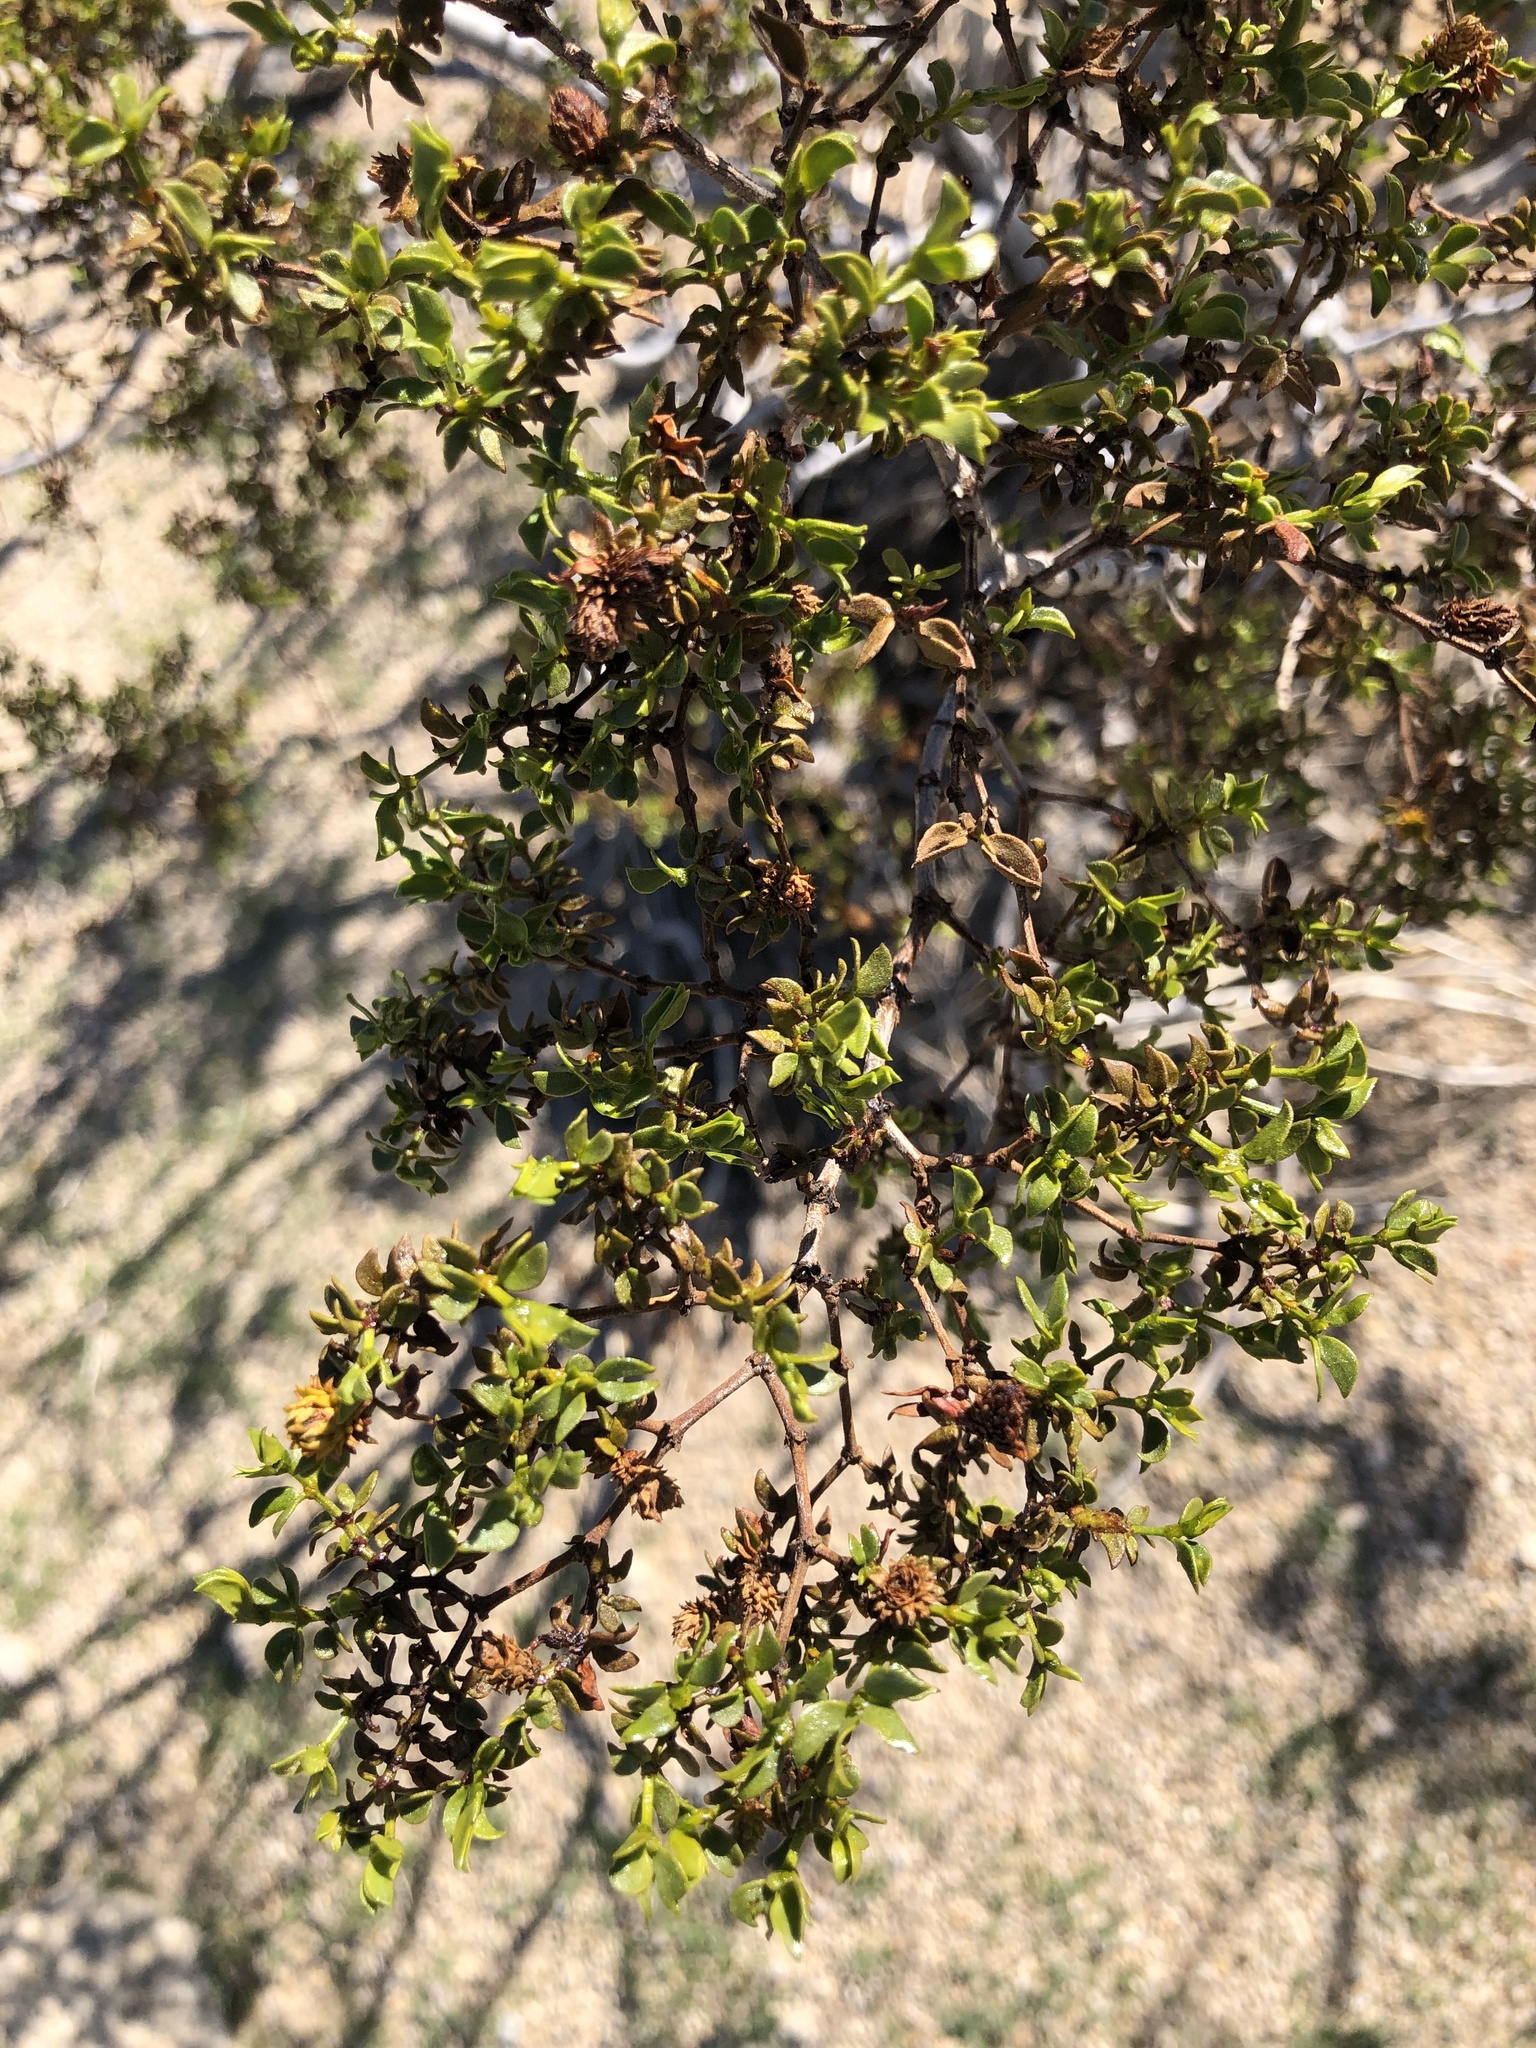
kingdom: Plantae
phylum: Tracheophyta
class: Magnoliopsida
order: Zygophyllales
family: Zygophyllaceae
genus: Larrea
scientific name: Larrea tridentata
